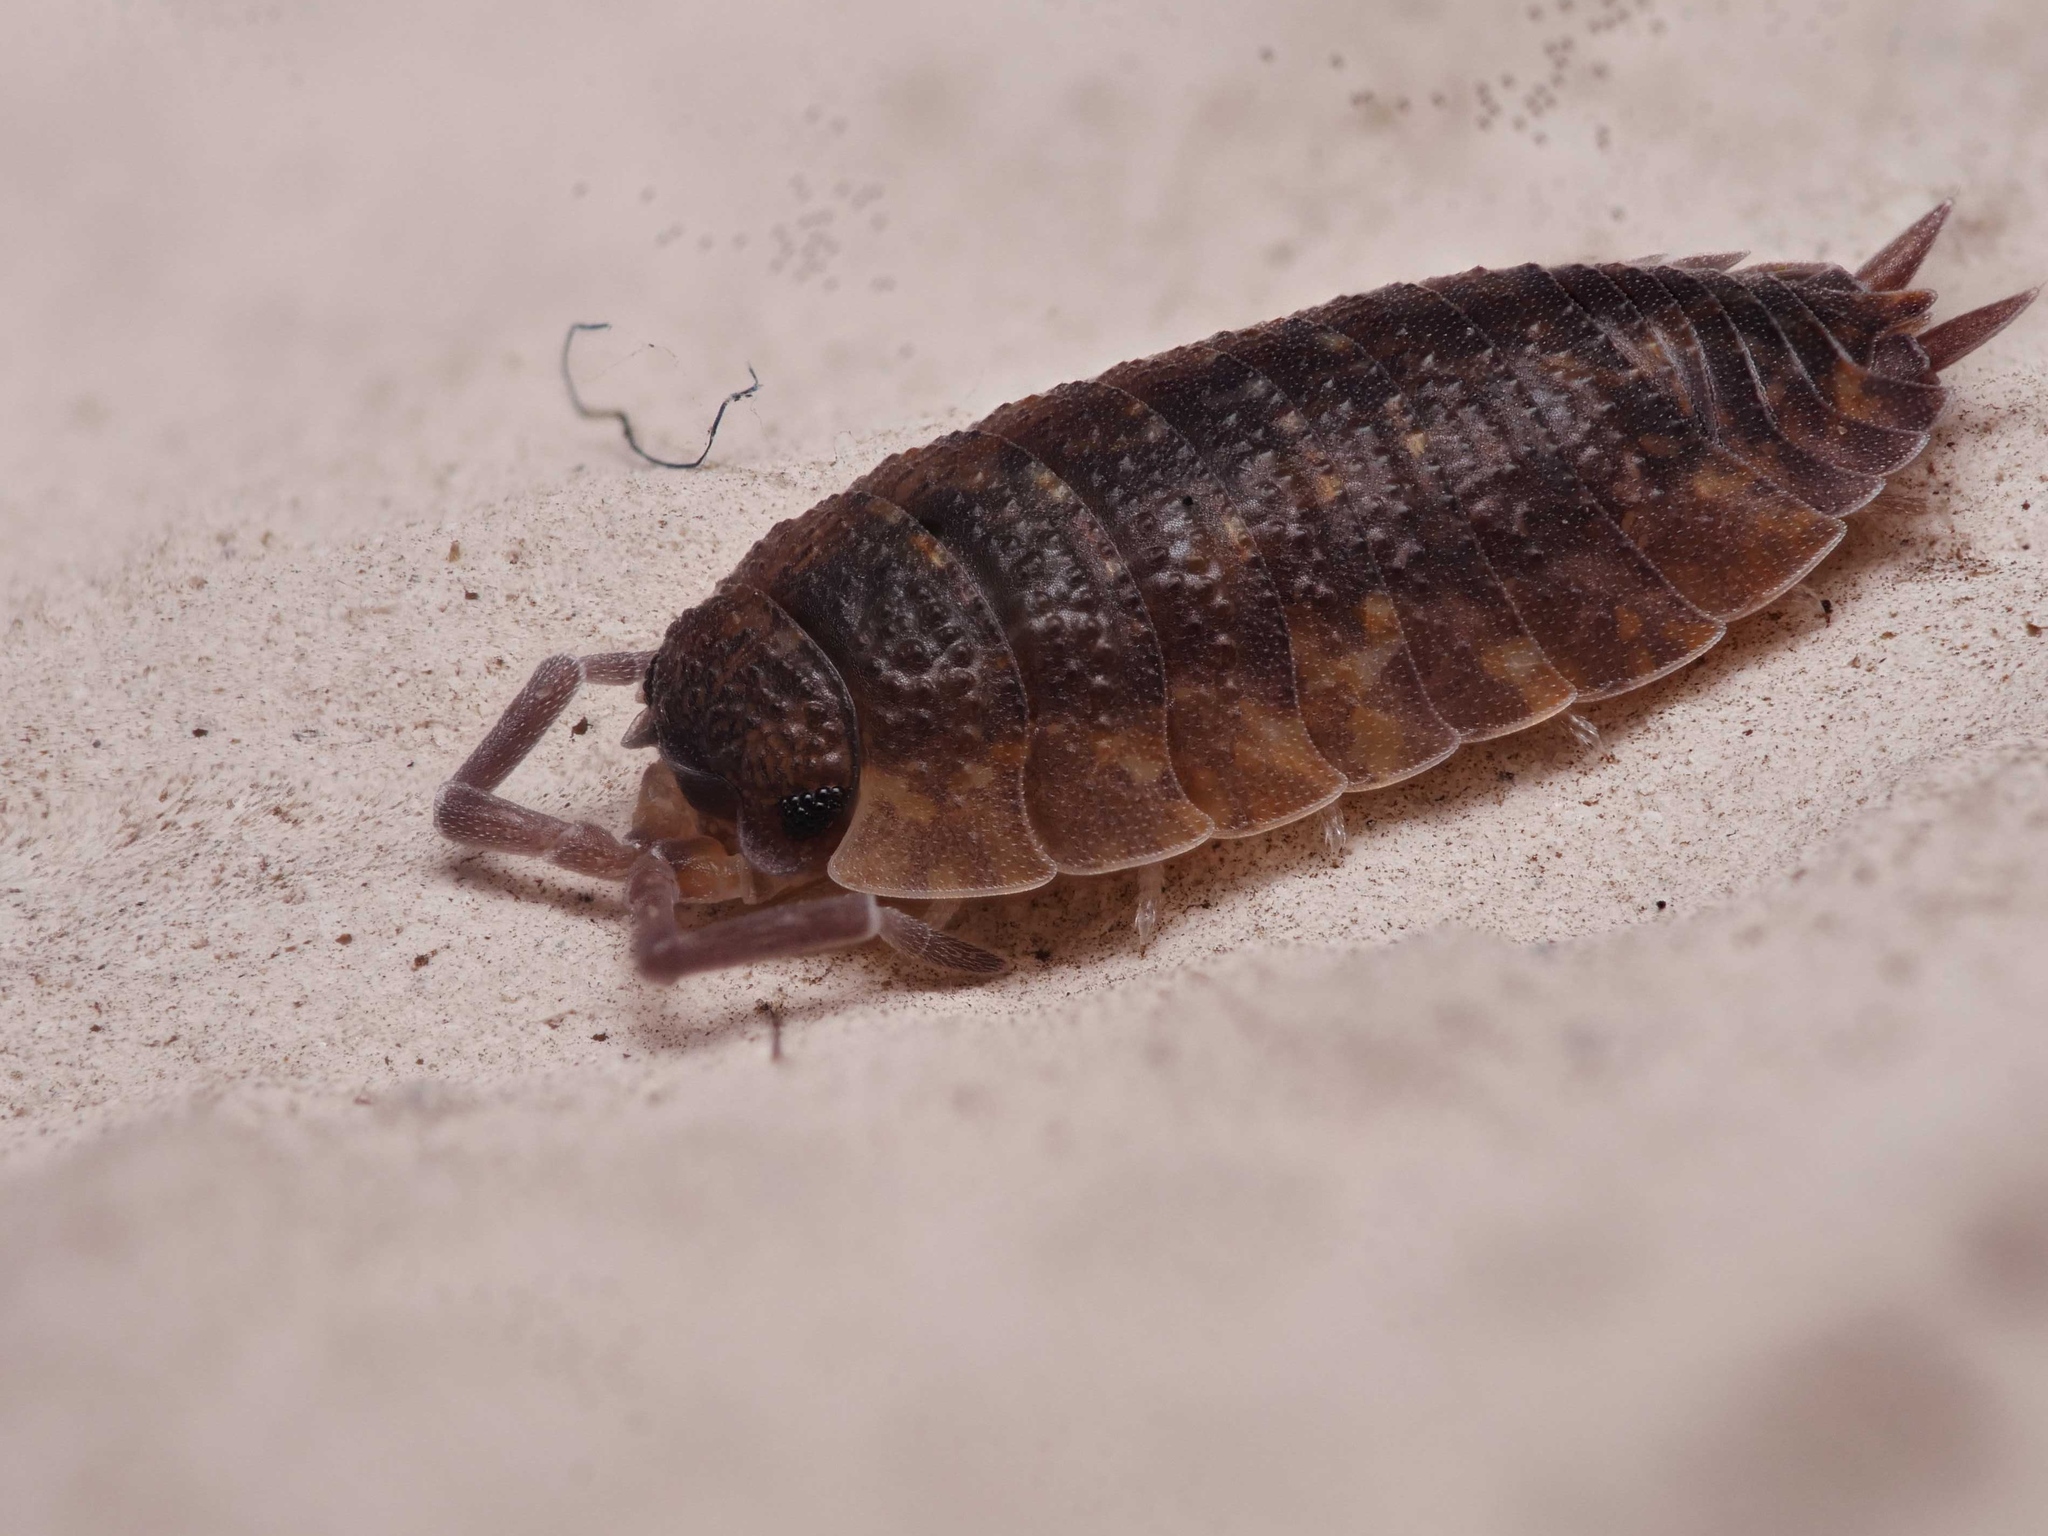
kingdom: Animalia
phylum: Arthropoda
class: Malacostraca
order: Isopoda
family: Porcellionidae
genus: Porcellio
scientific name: Porcellio scaber
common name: Common rough woodlouse
